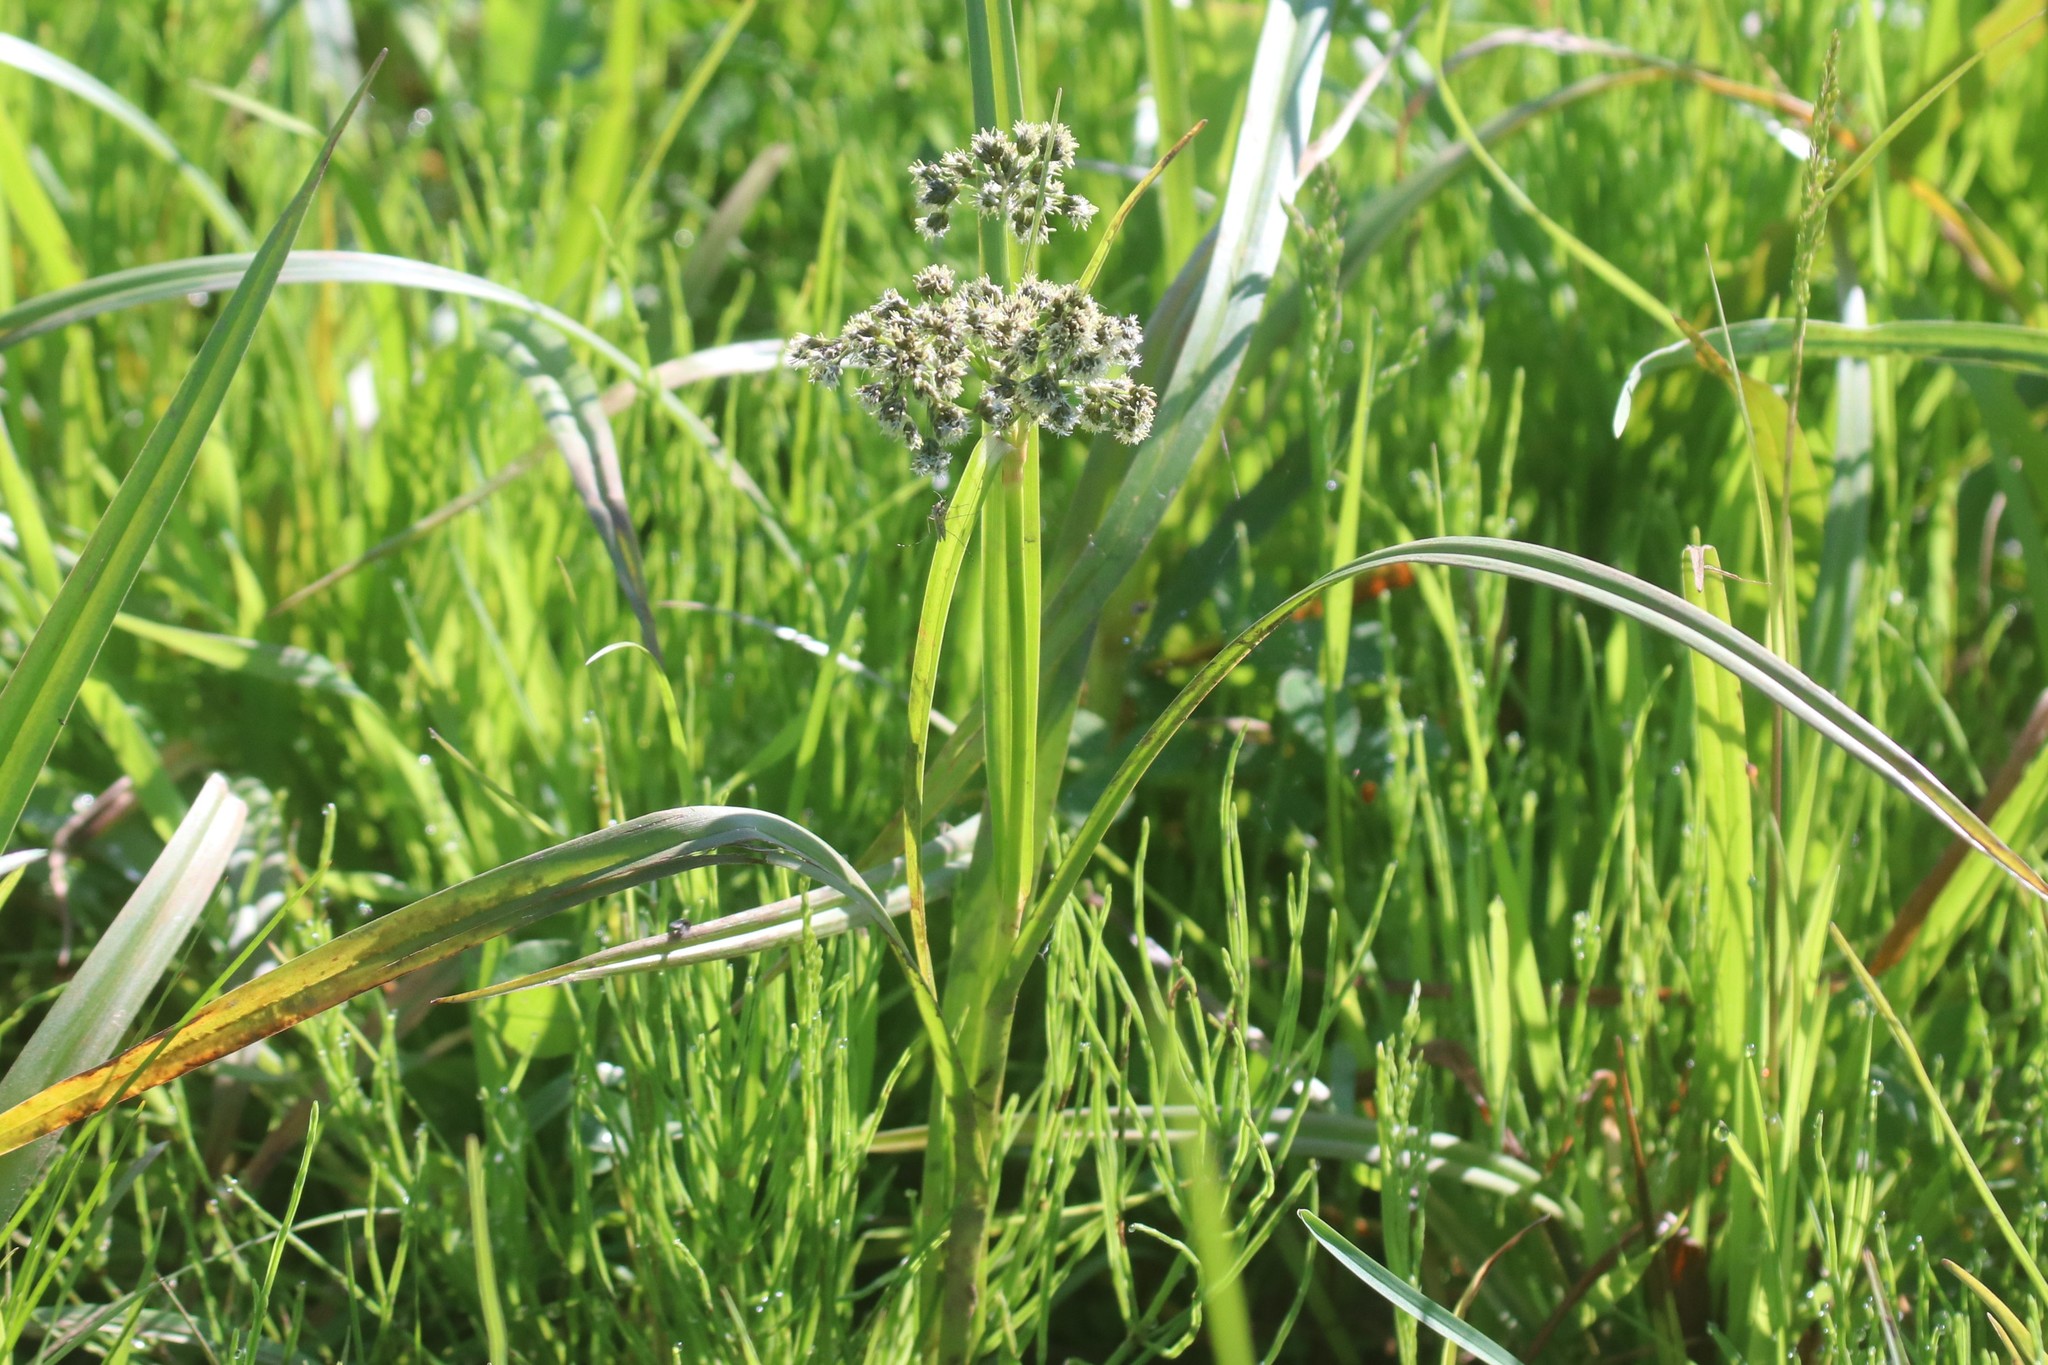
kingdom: Plantae
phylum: Tracheophyta
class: Liliopsida
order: Poales
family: Cyperaceae
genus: Scirpus
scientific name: Scirpus sylvaticus
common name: Wood club-rush
